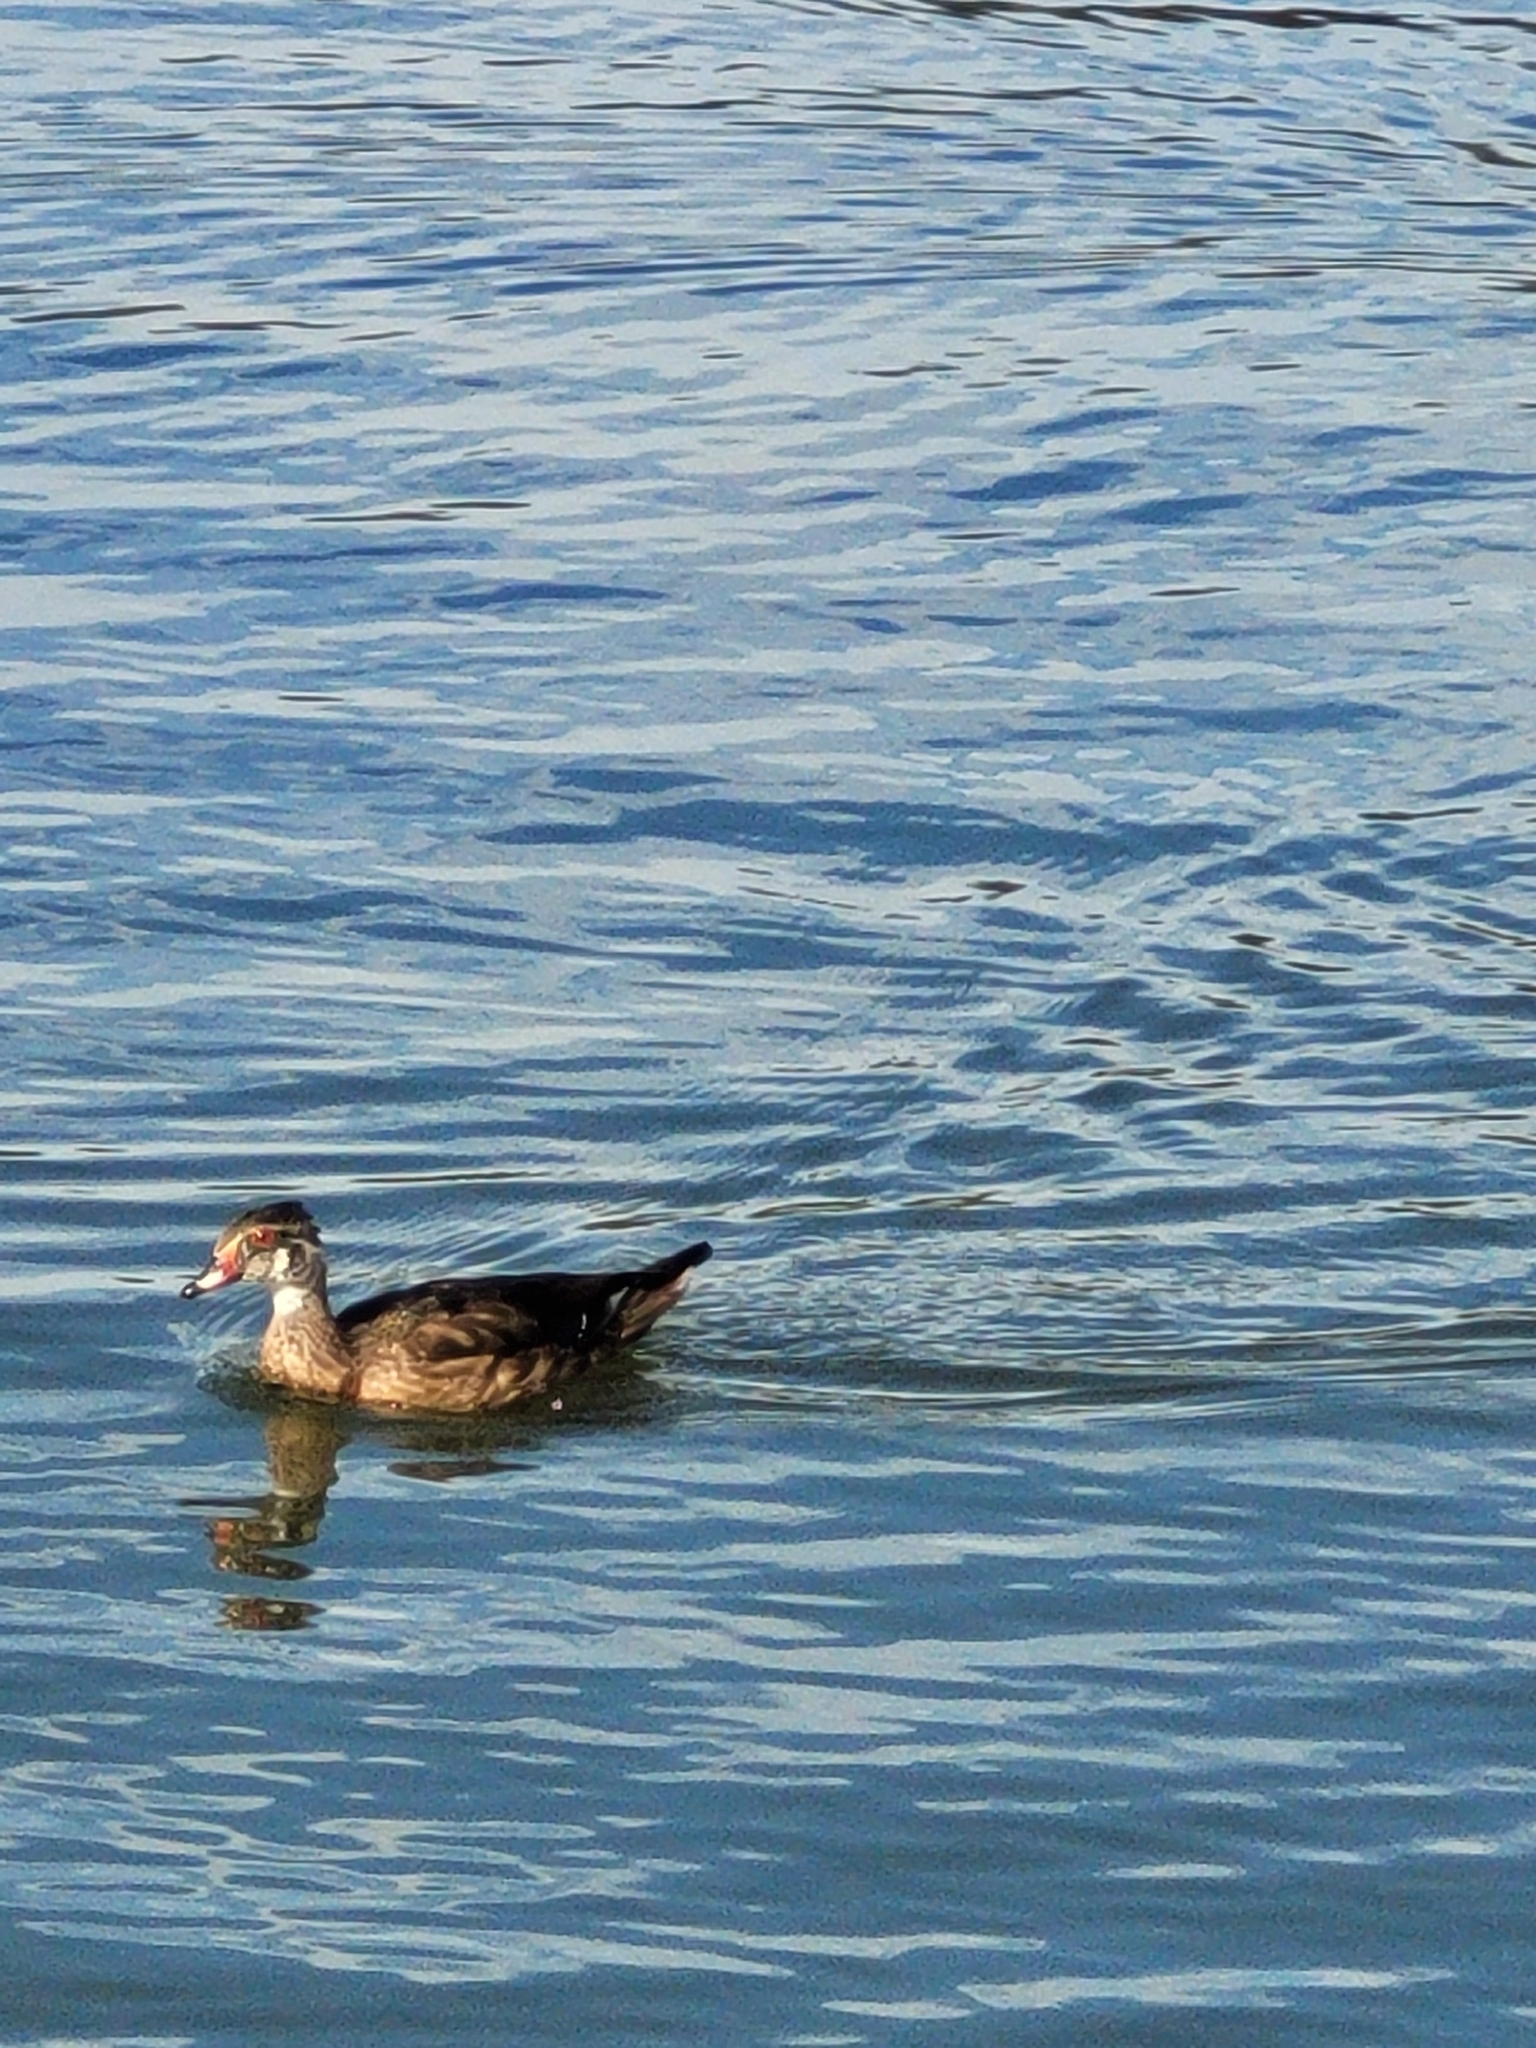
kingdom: Animalia
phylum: Chordata
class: Aves
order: Anseriformes
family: Anatidae
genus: Aix
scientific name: Aix sponsa
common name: Wood duck
